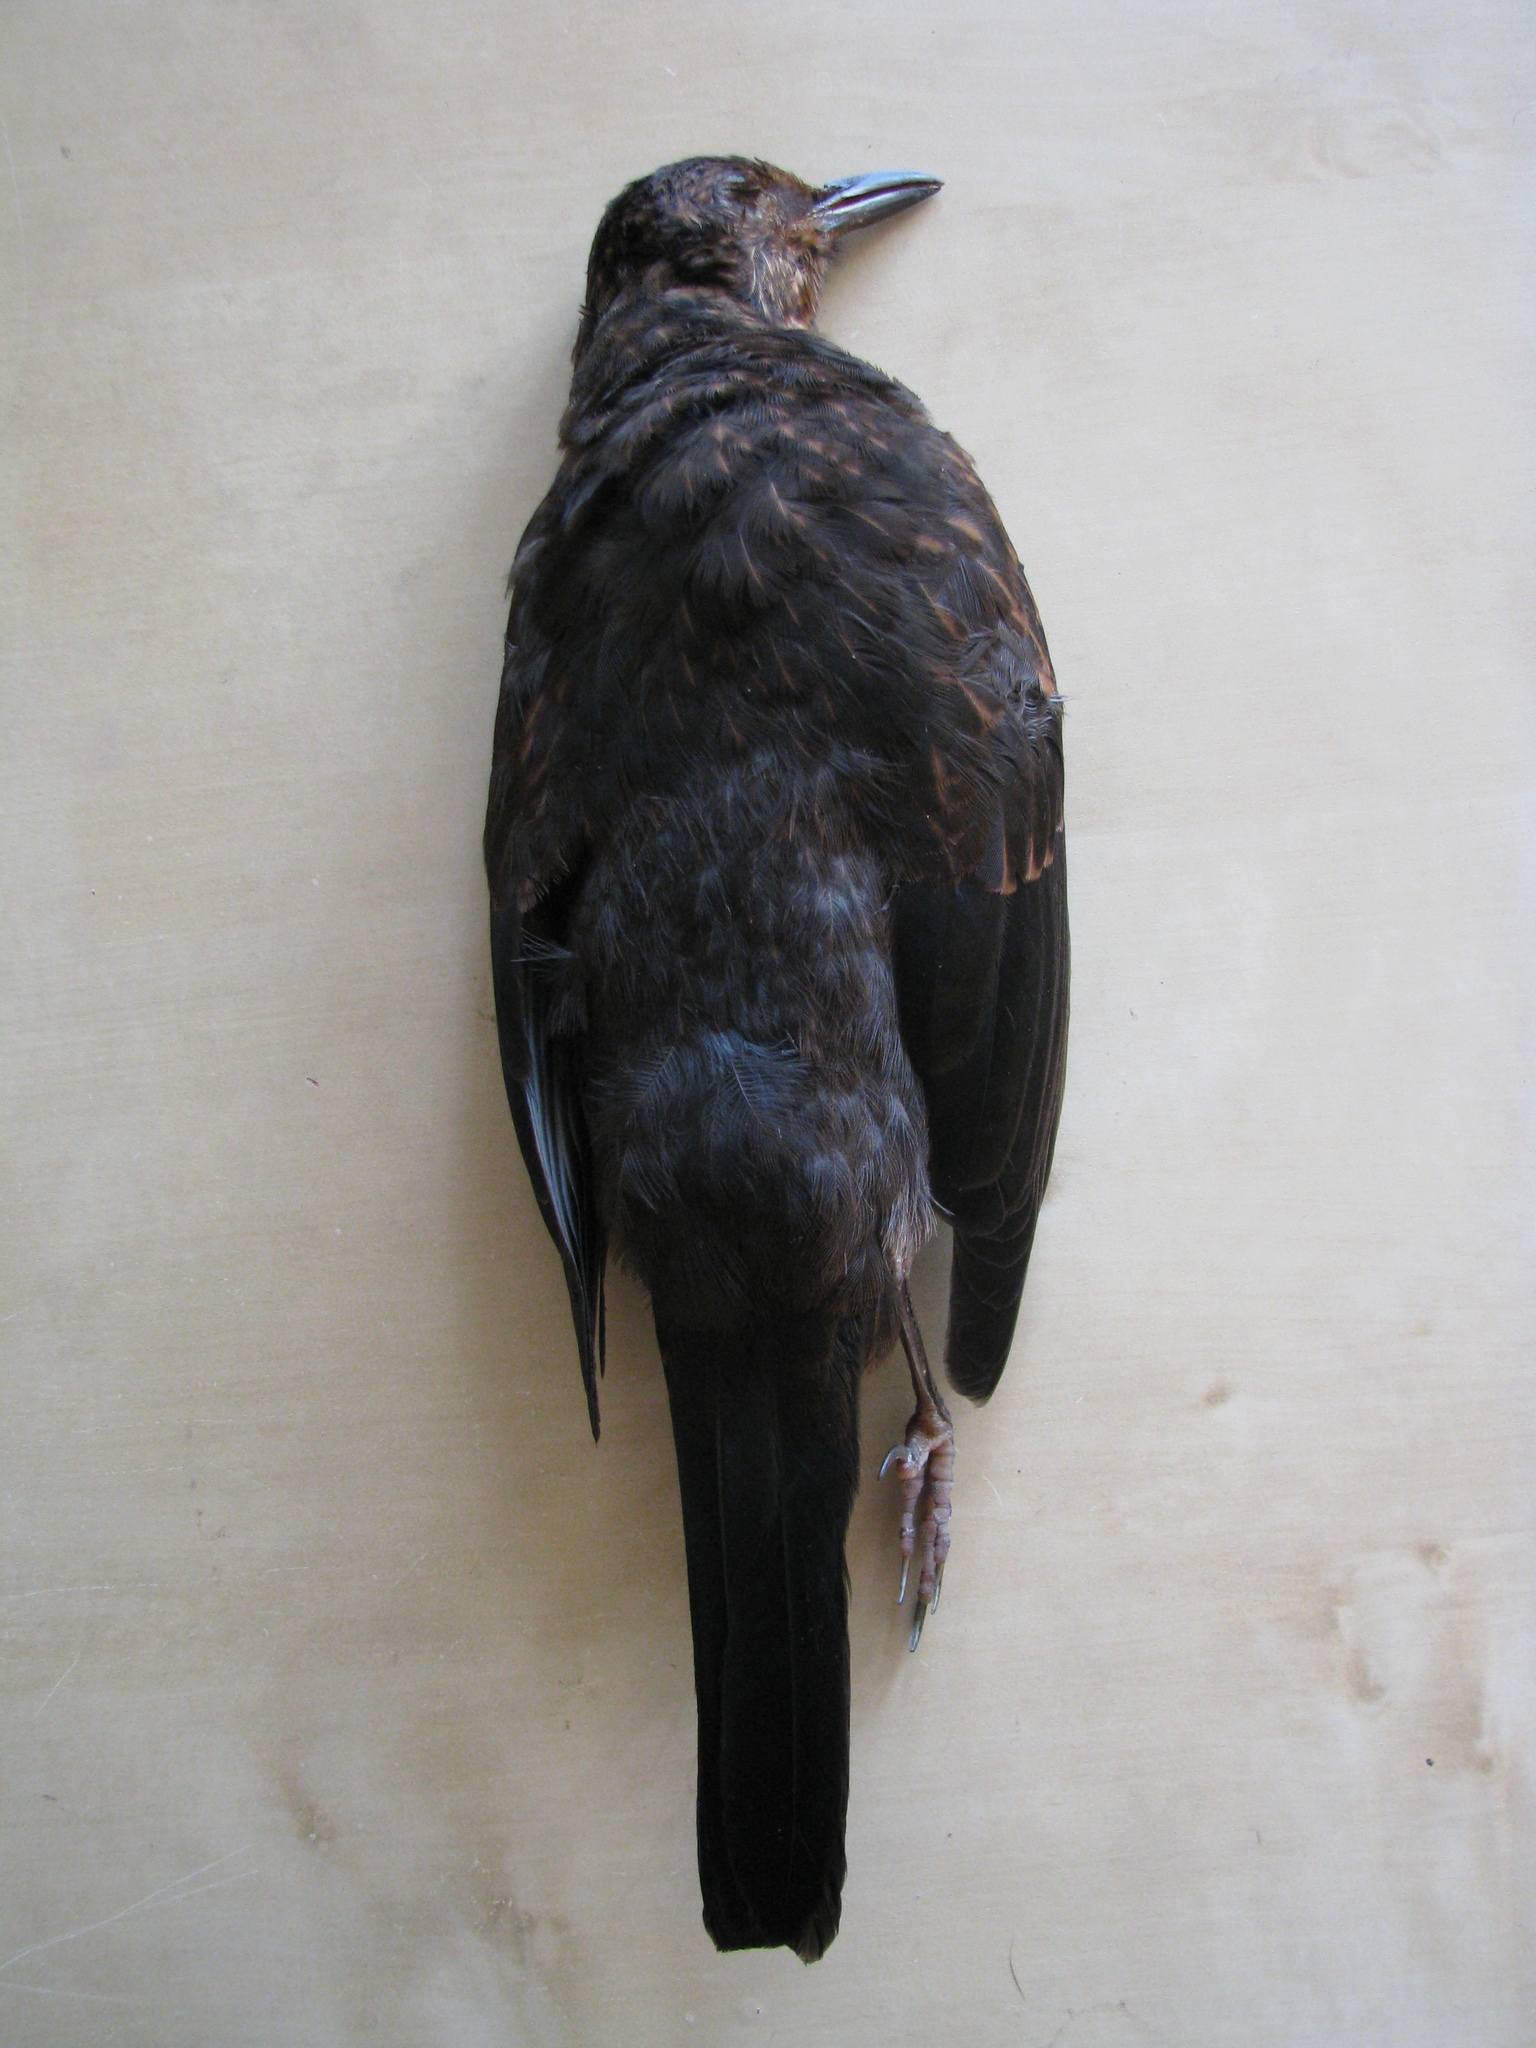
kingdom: Animalia
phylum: Chordata
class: Aves
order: Passeriformes
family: Turdidae
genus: Turdus
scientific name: Turdus merula
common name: Common blackbird
